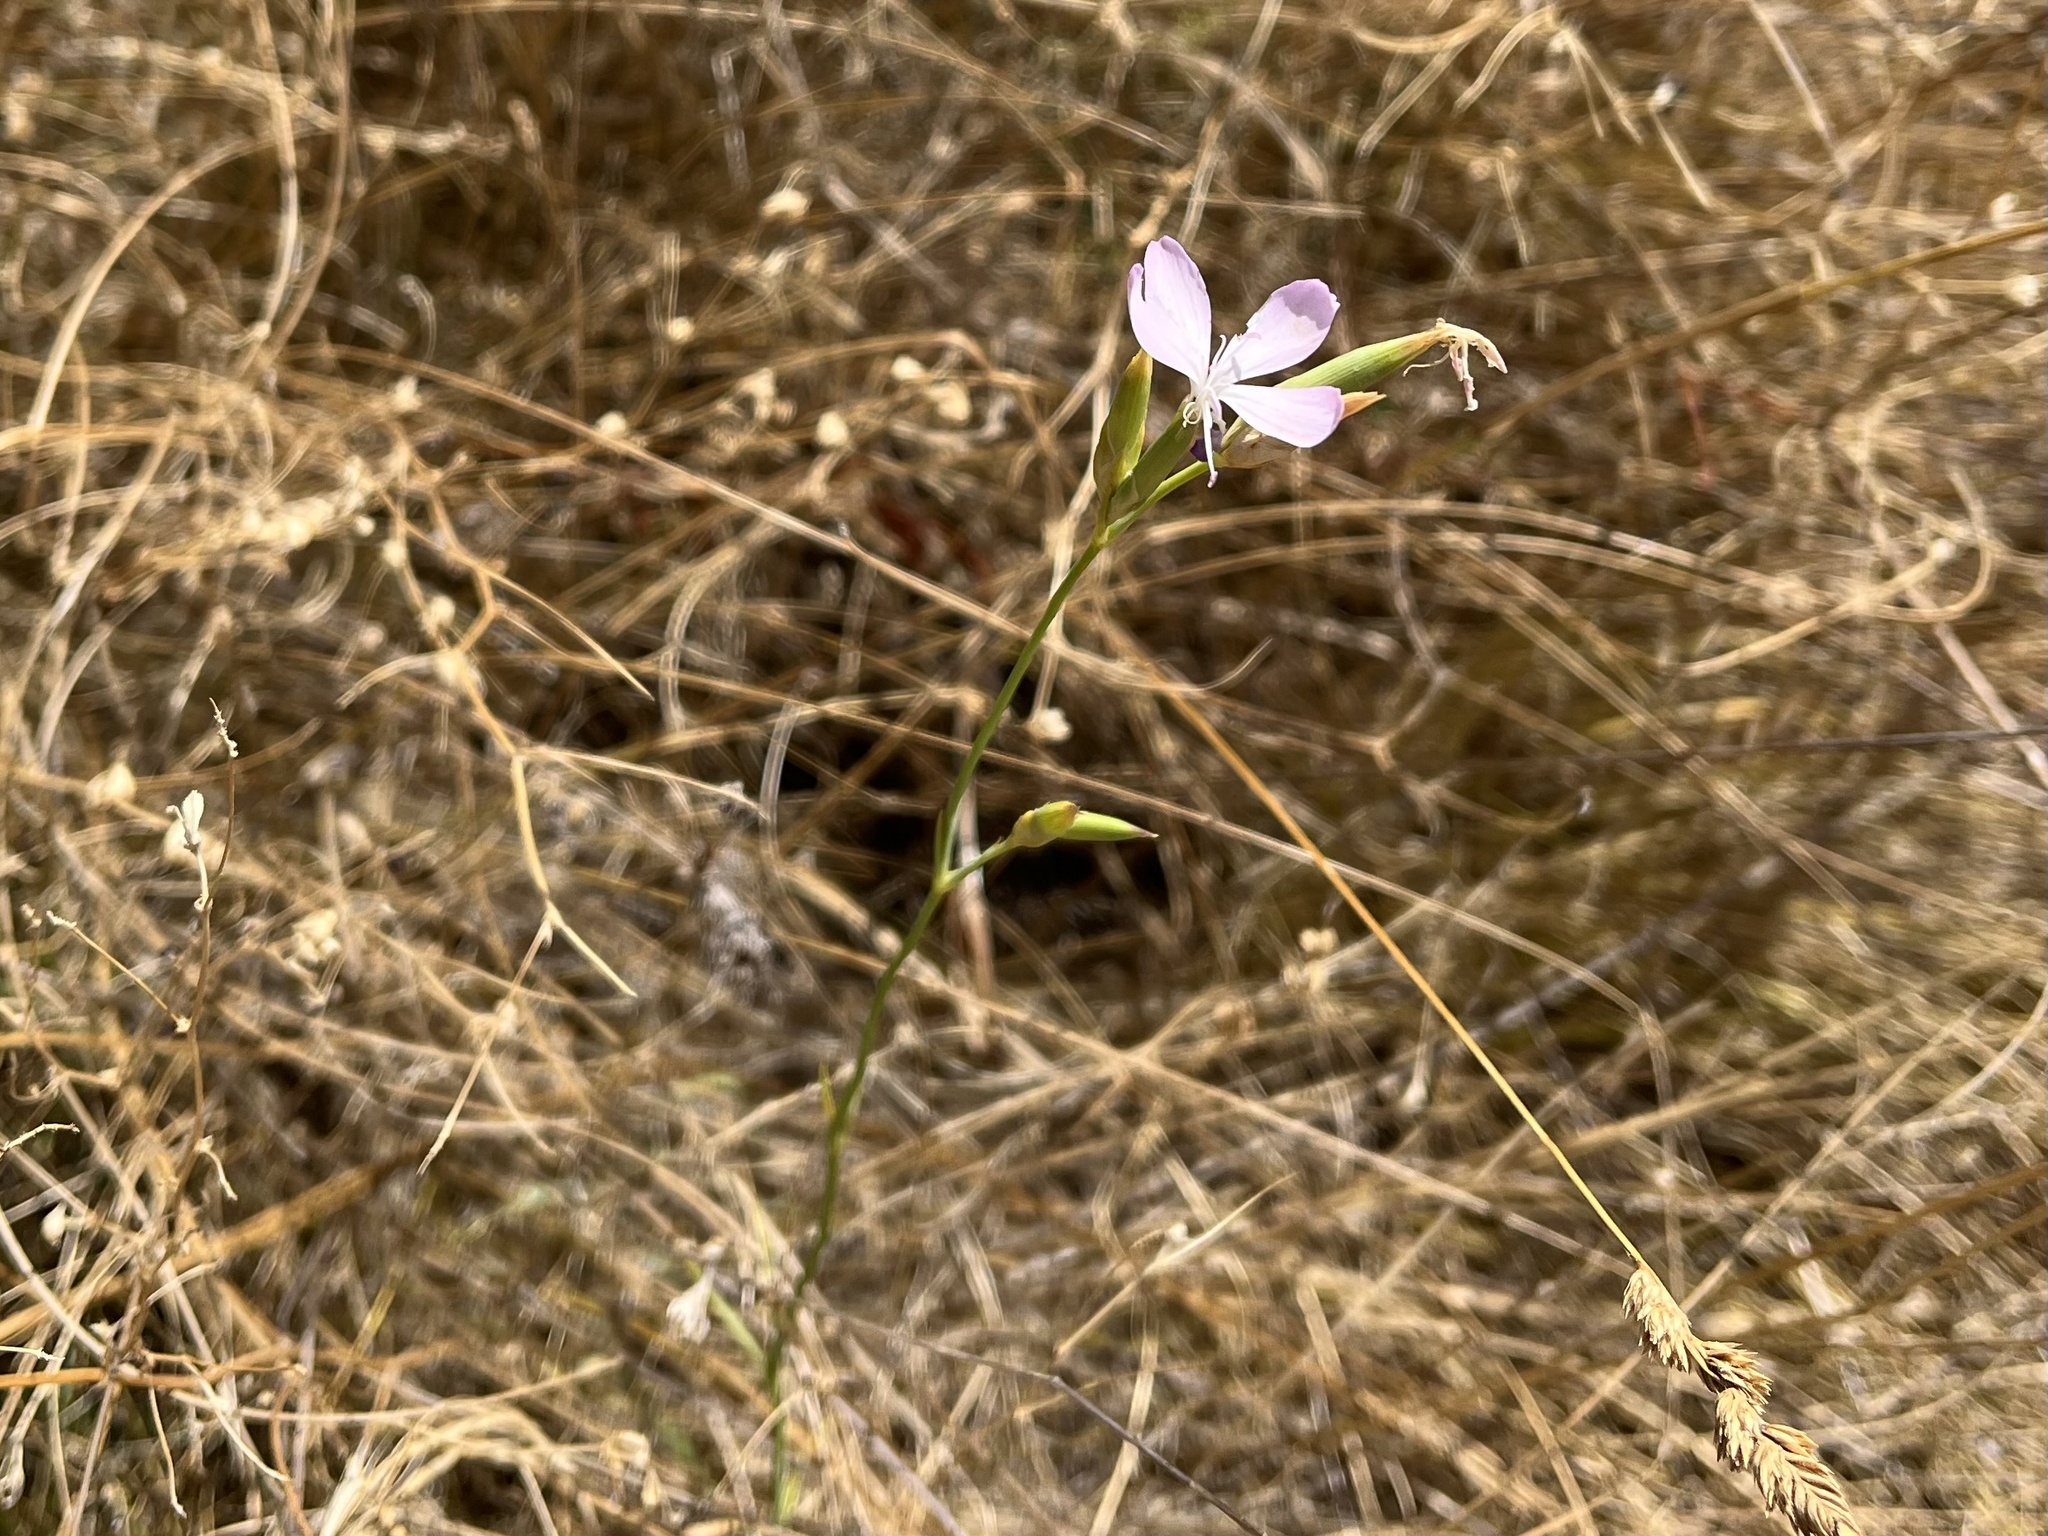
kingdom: Plantae
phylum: Tracheophyta
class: Magnoliopsida
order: Caryophyllales
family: Caryophyllaceae
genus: Dianthus
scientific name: Dianthus ciliatus
